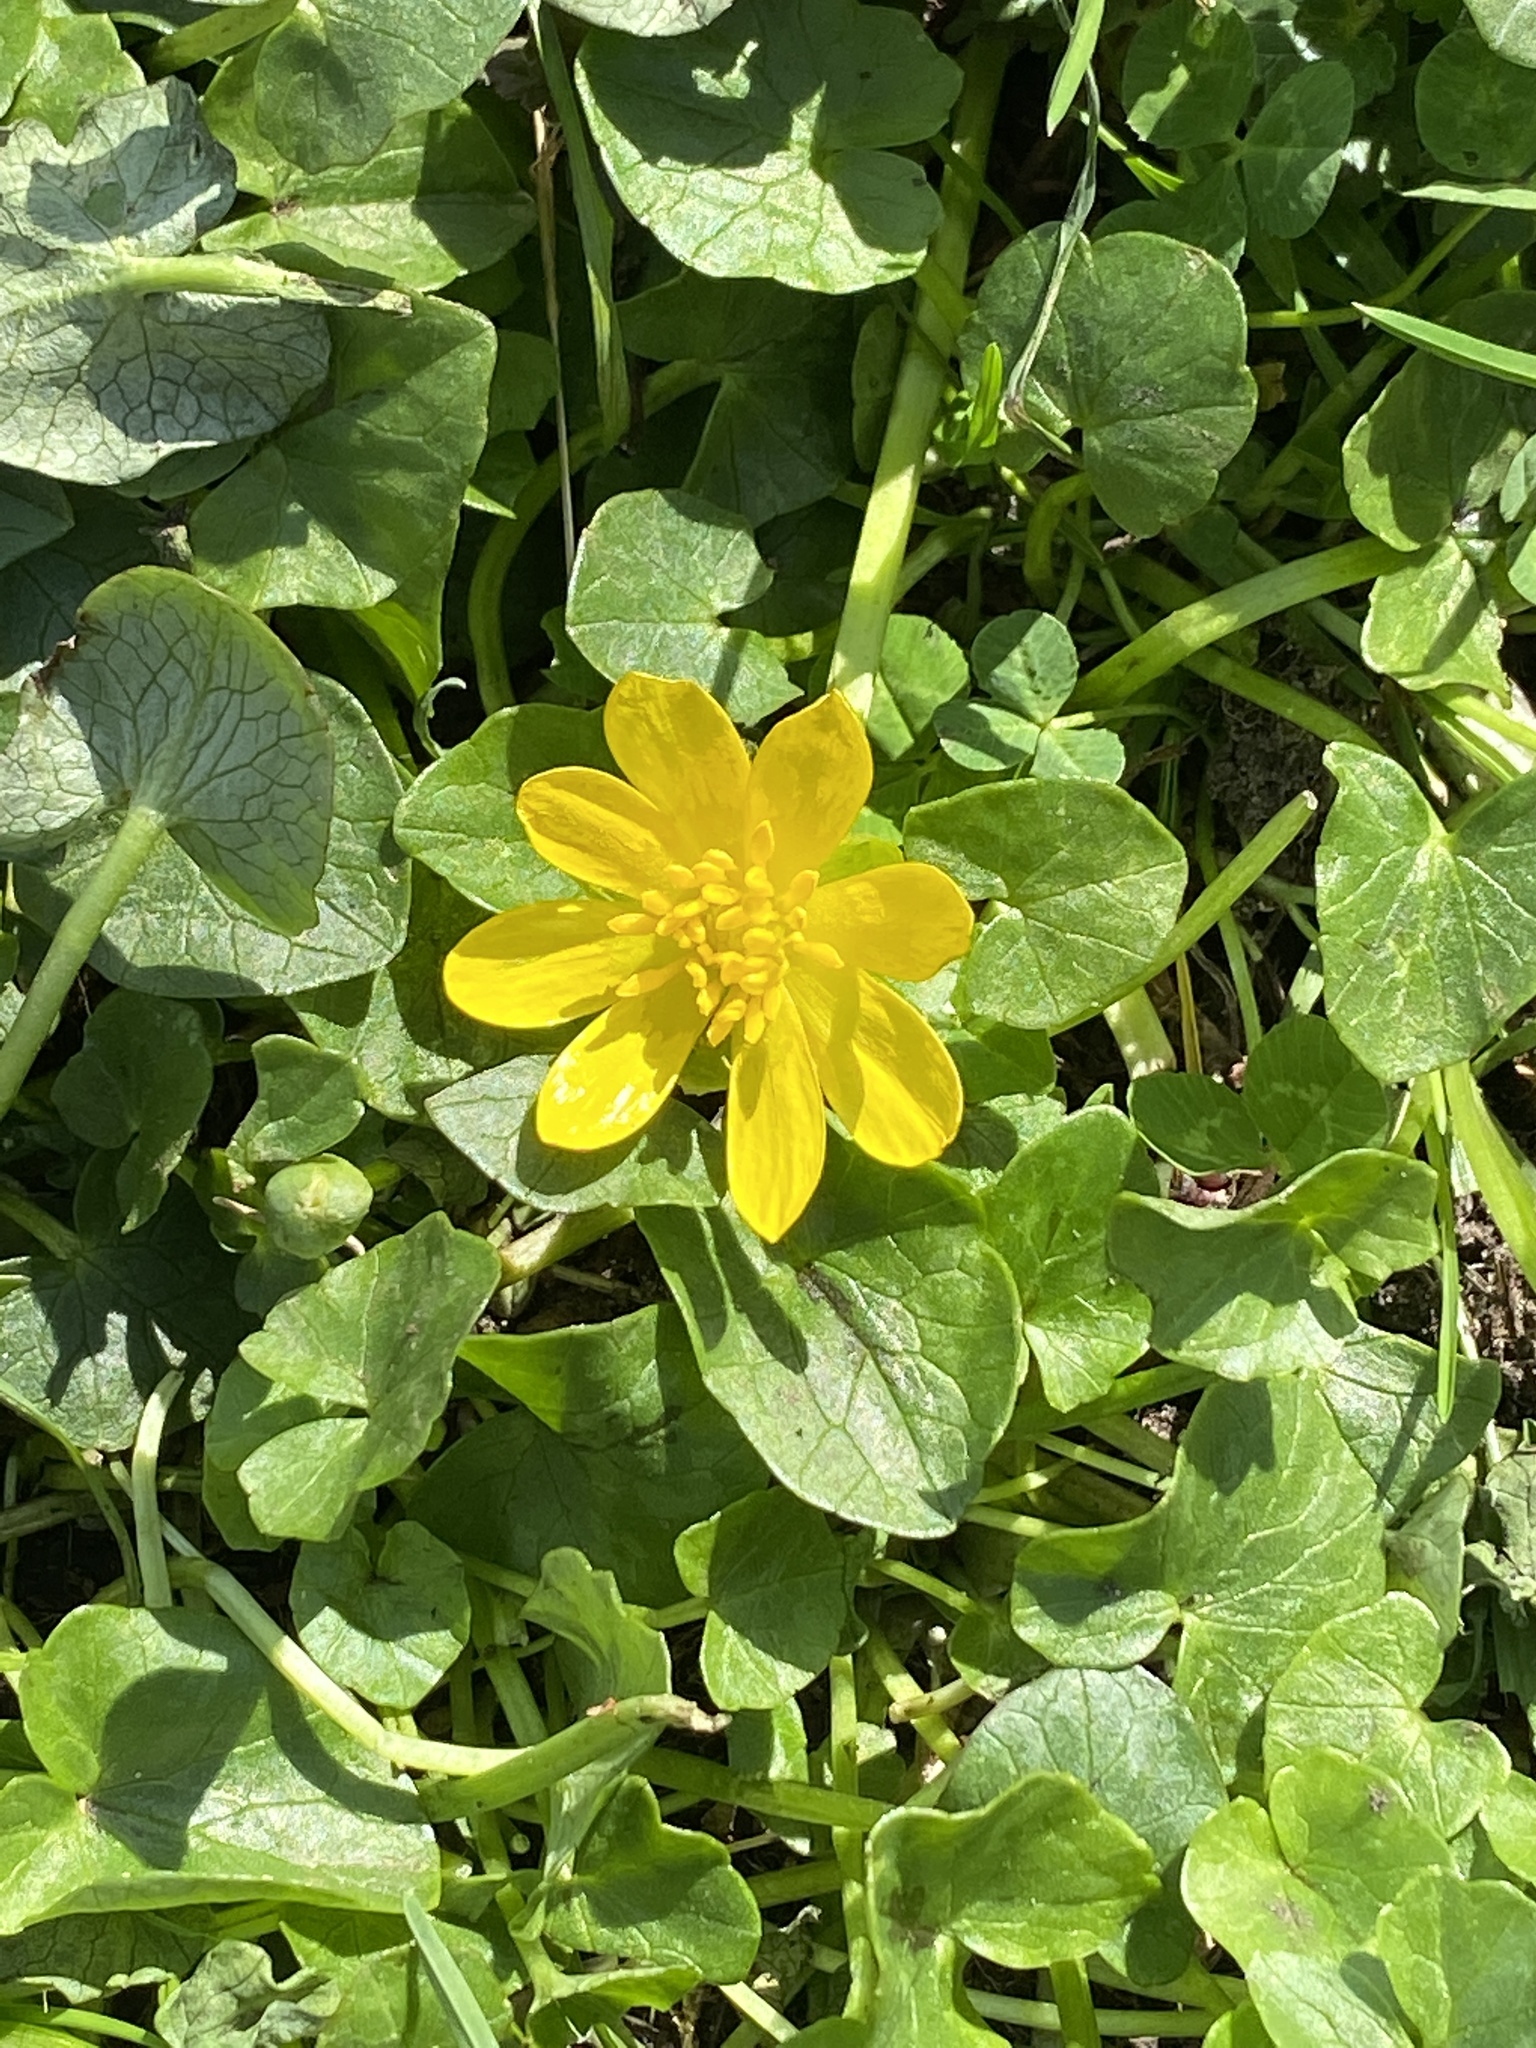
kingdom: Plantae
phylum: Tracheophyta
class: Magnoliopsida
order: Ranunculales
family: Ranunculaceae
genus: Ficaria
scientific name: Ficaria verna
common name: Lesser celandine
